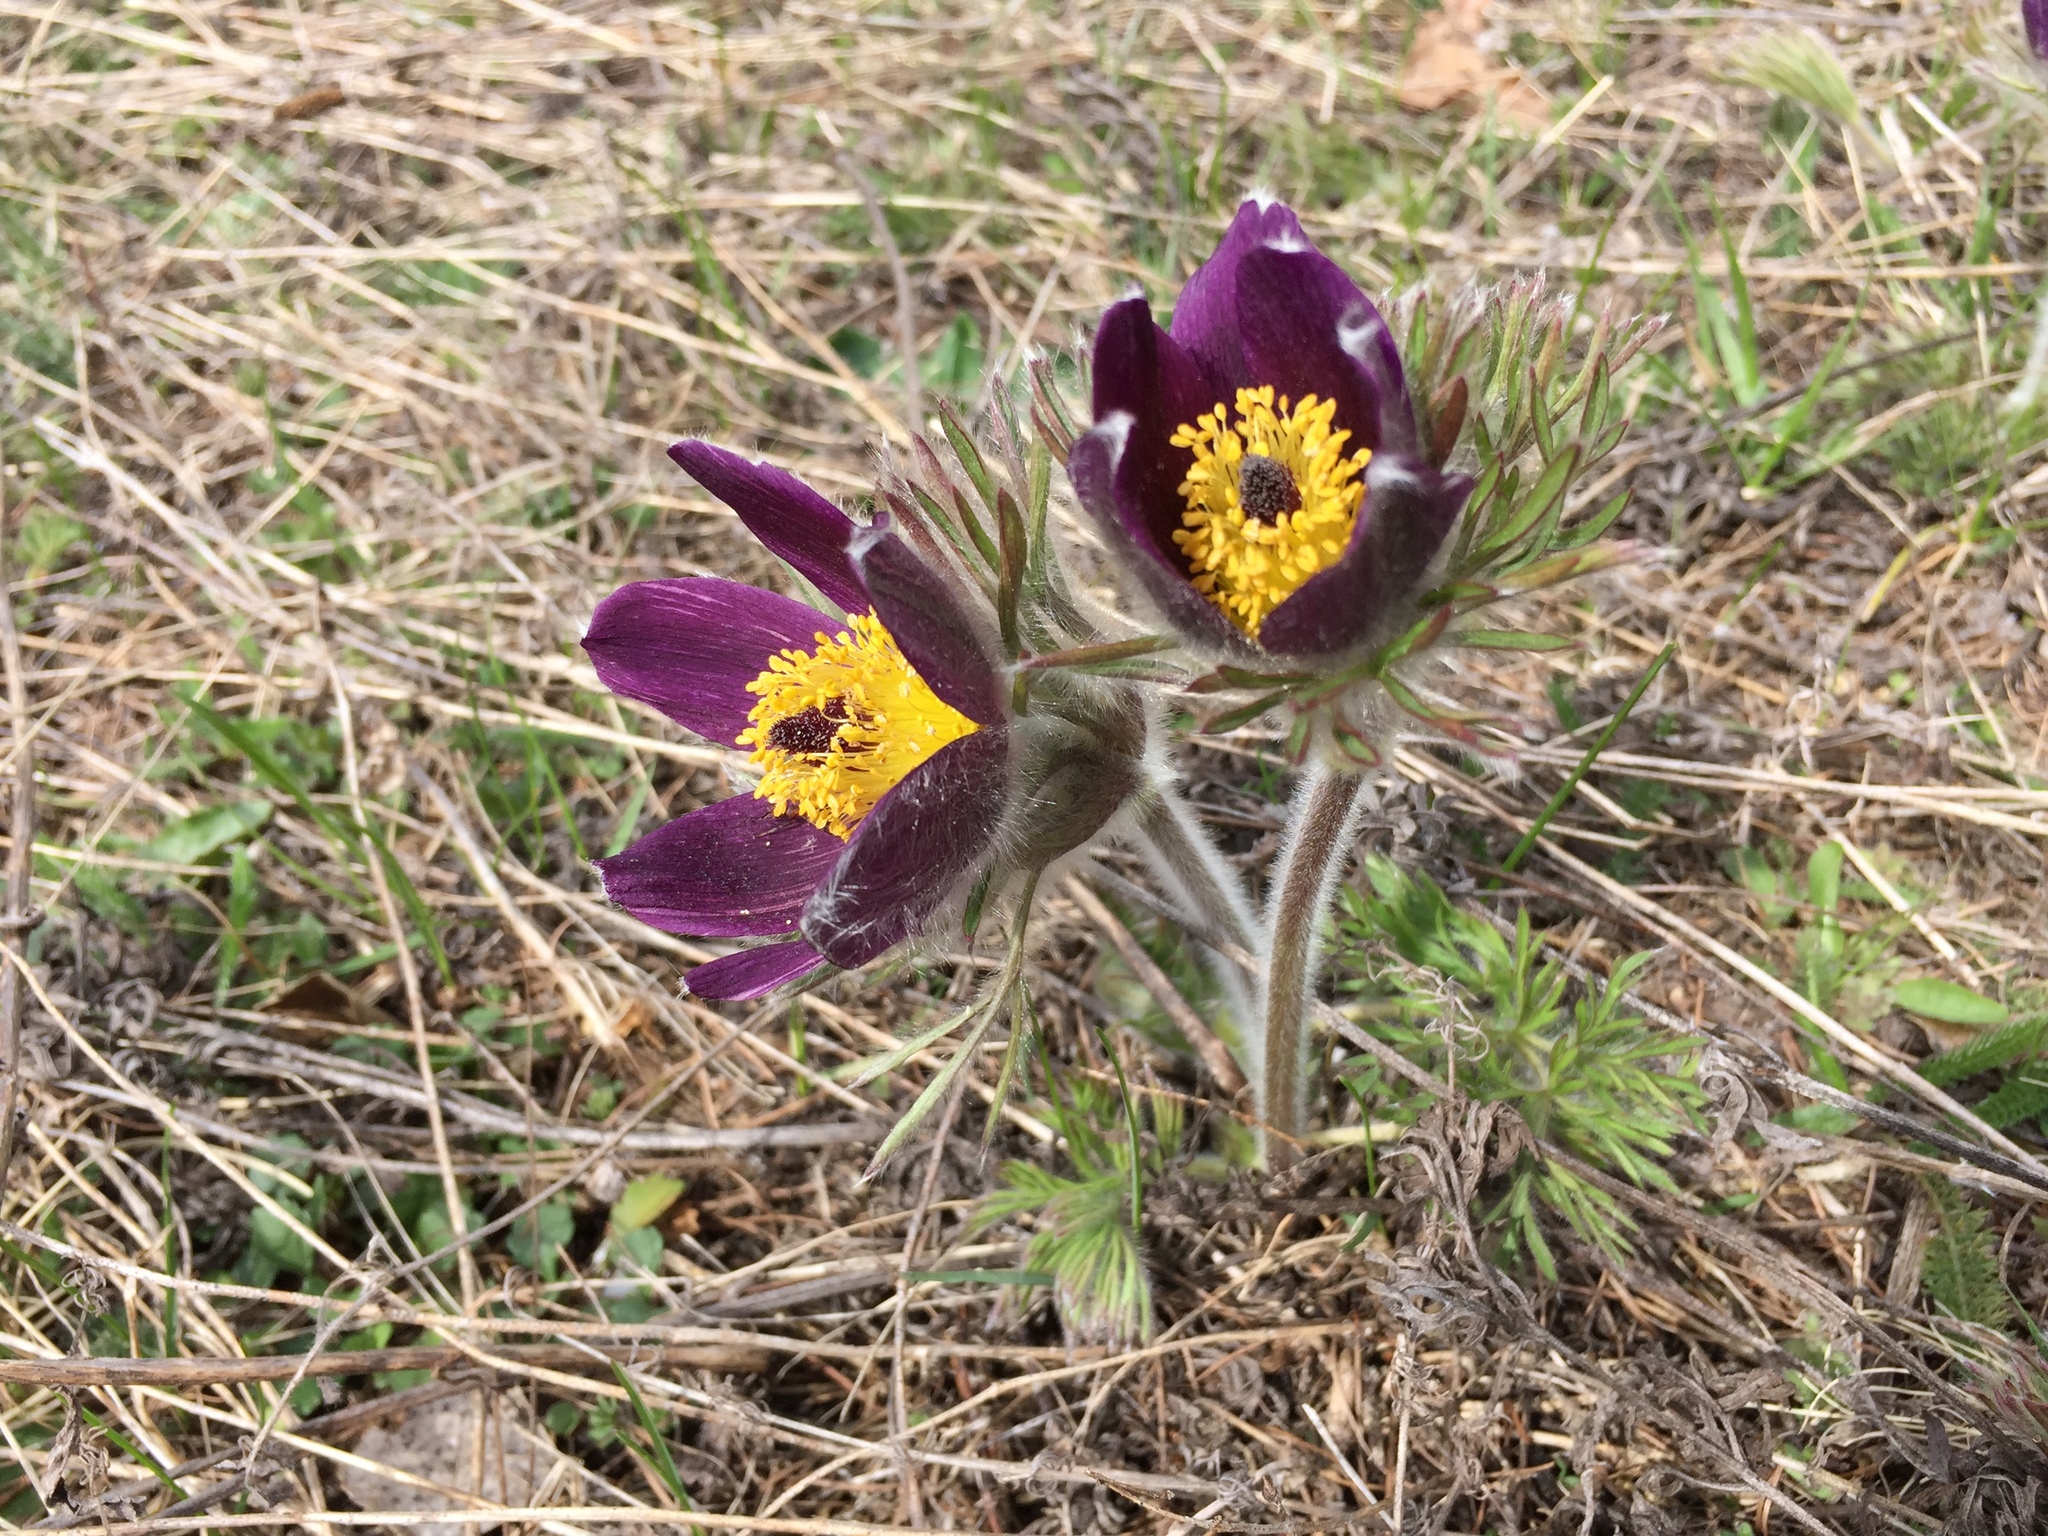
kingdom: Plantae
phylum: Tracheophyta
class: Magnoliopsida
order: Ranunculales
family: Ranunculaceae
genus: Pulsatilla
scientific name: Pulsatilla montana
